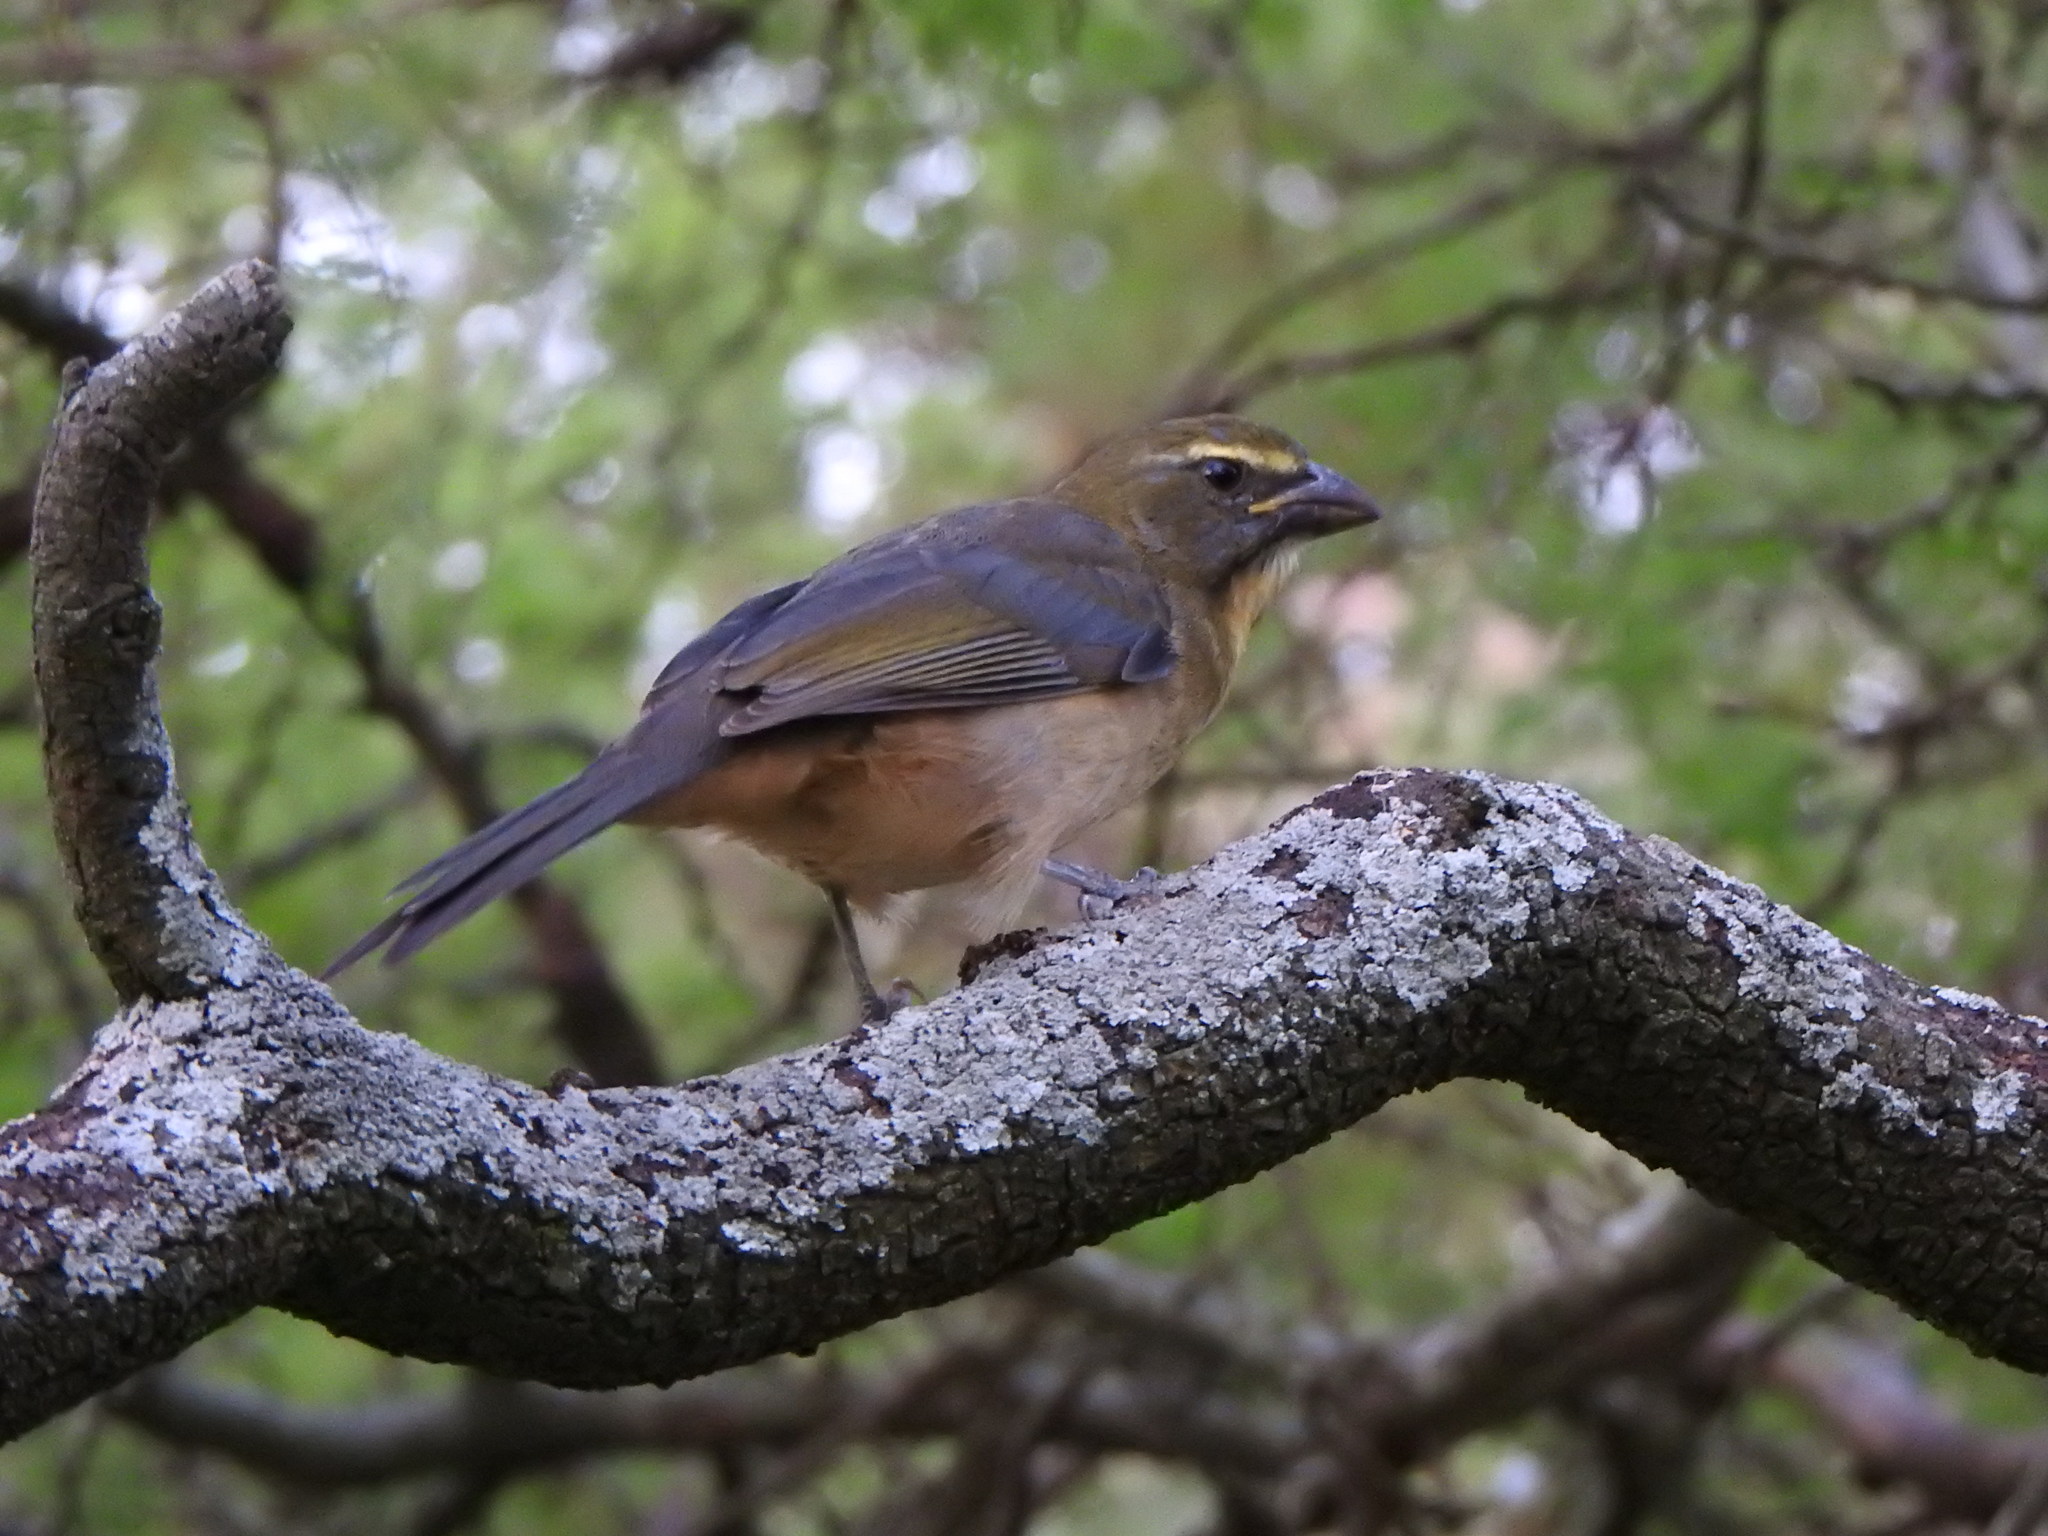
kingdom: Animalia
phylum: Chordata
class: Aves
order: Passeriformes
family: Thraupidae
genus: Saltator
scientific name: Saltator coerulescens
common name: Grayish saltator
